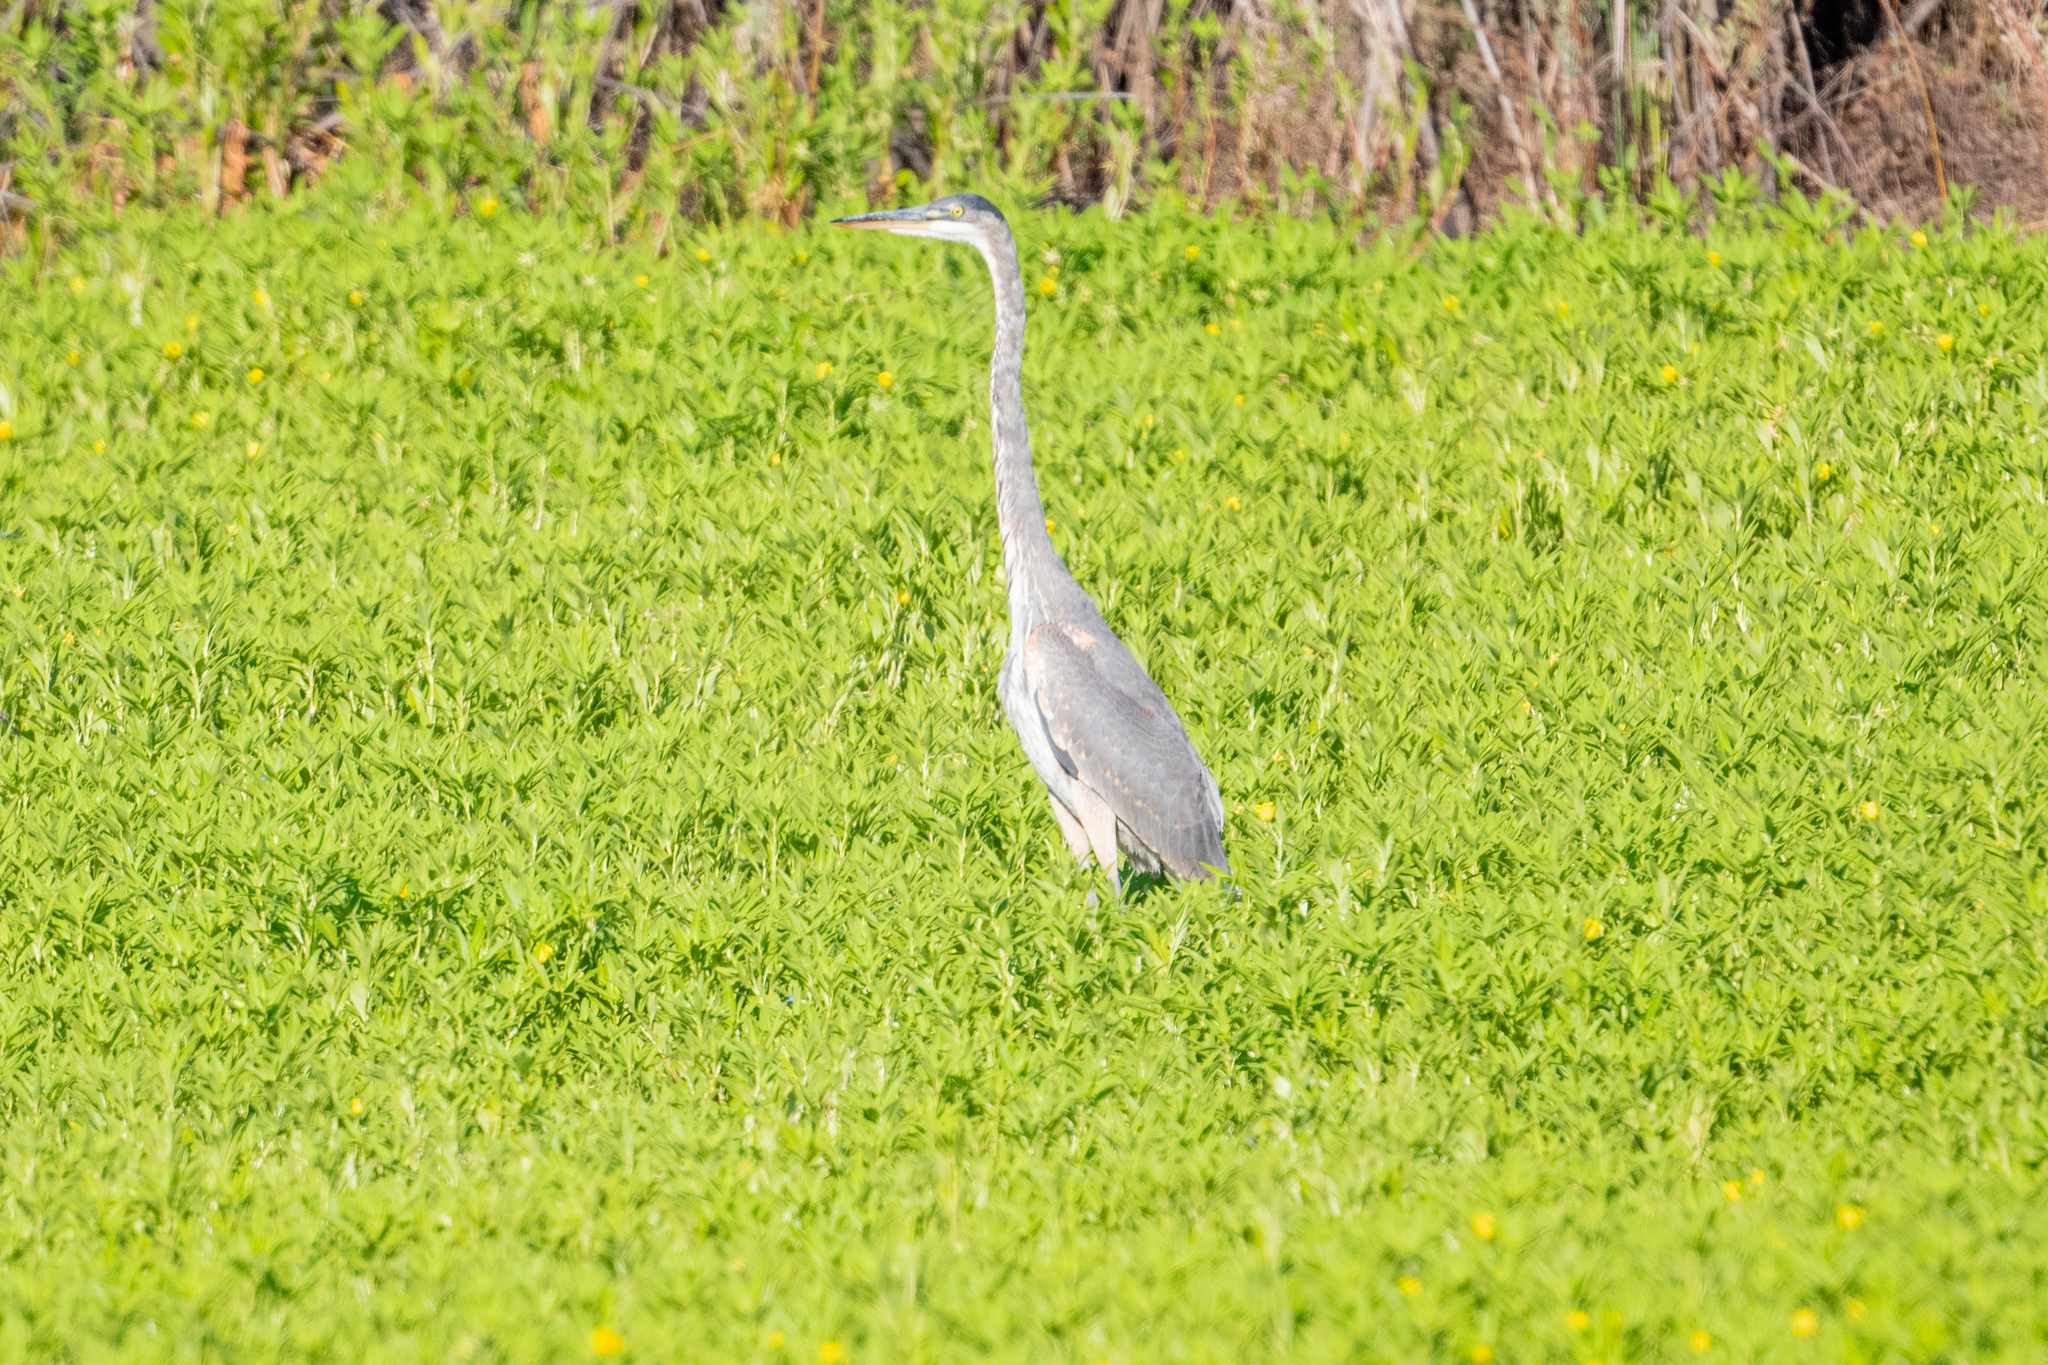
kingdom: Animalia
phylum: Chordata
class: Aves
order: Pelecaniformes
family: Ardeidae
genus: Ardea
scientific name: Ardea herodias
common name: Great blue heron
